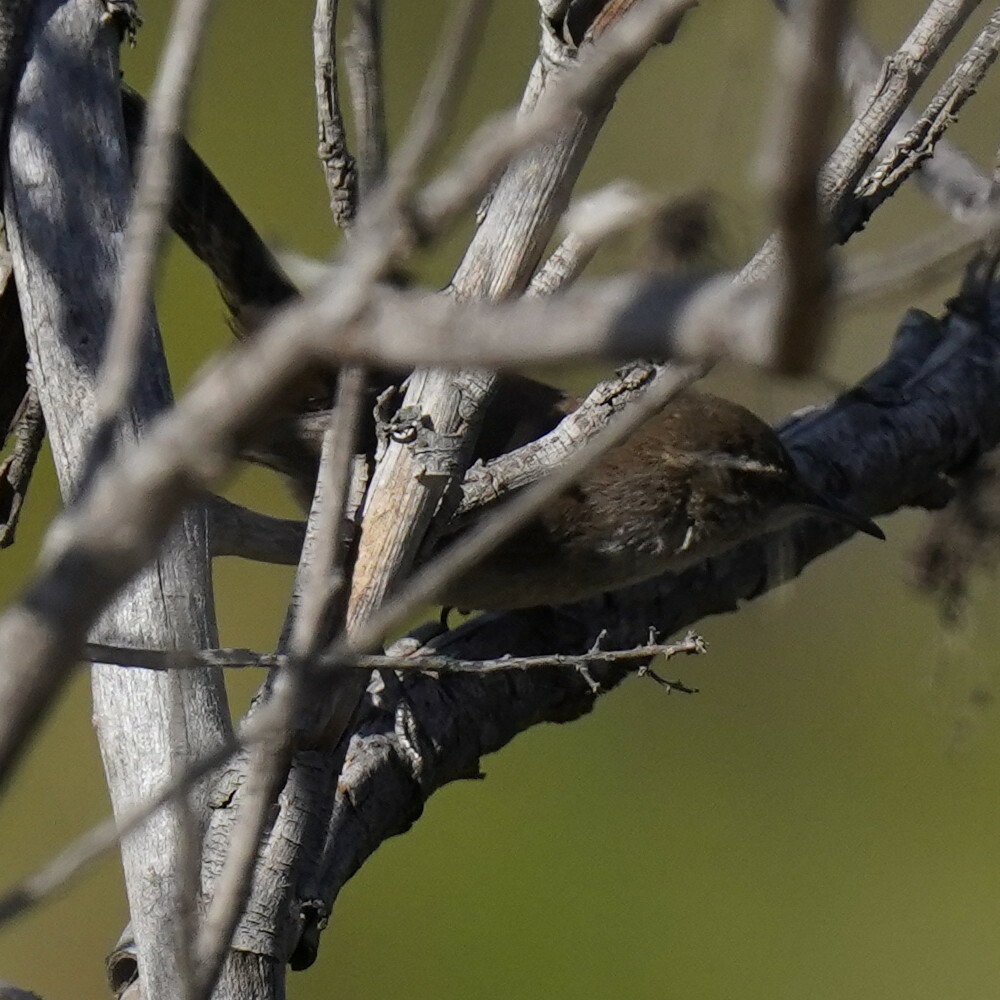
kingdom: Animalia
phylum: Chordata
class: Aves
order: Passeriformes
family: Troglodytidae
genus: Thryomanes
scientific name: Thryomanes bewickii
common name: Bewick's wren
